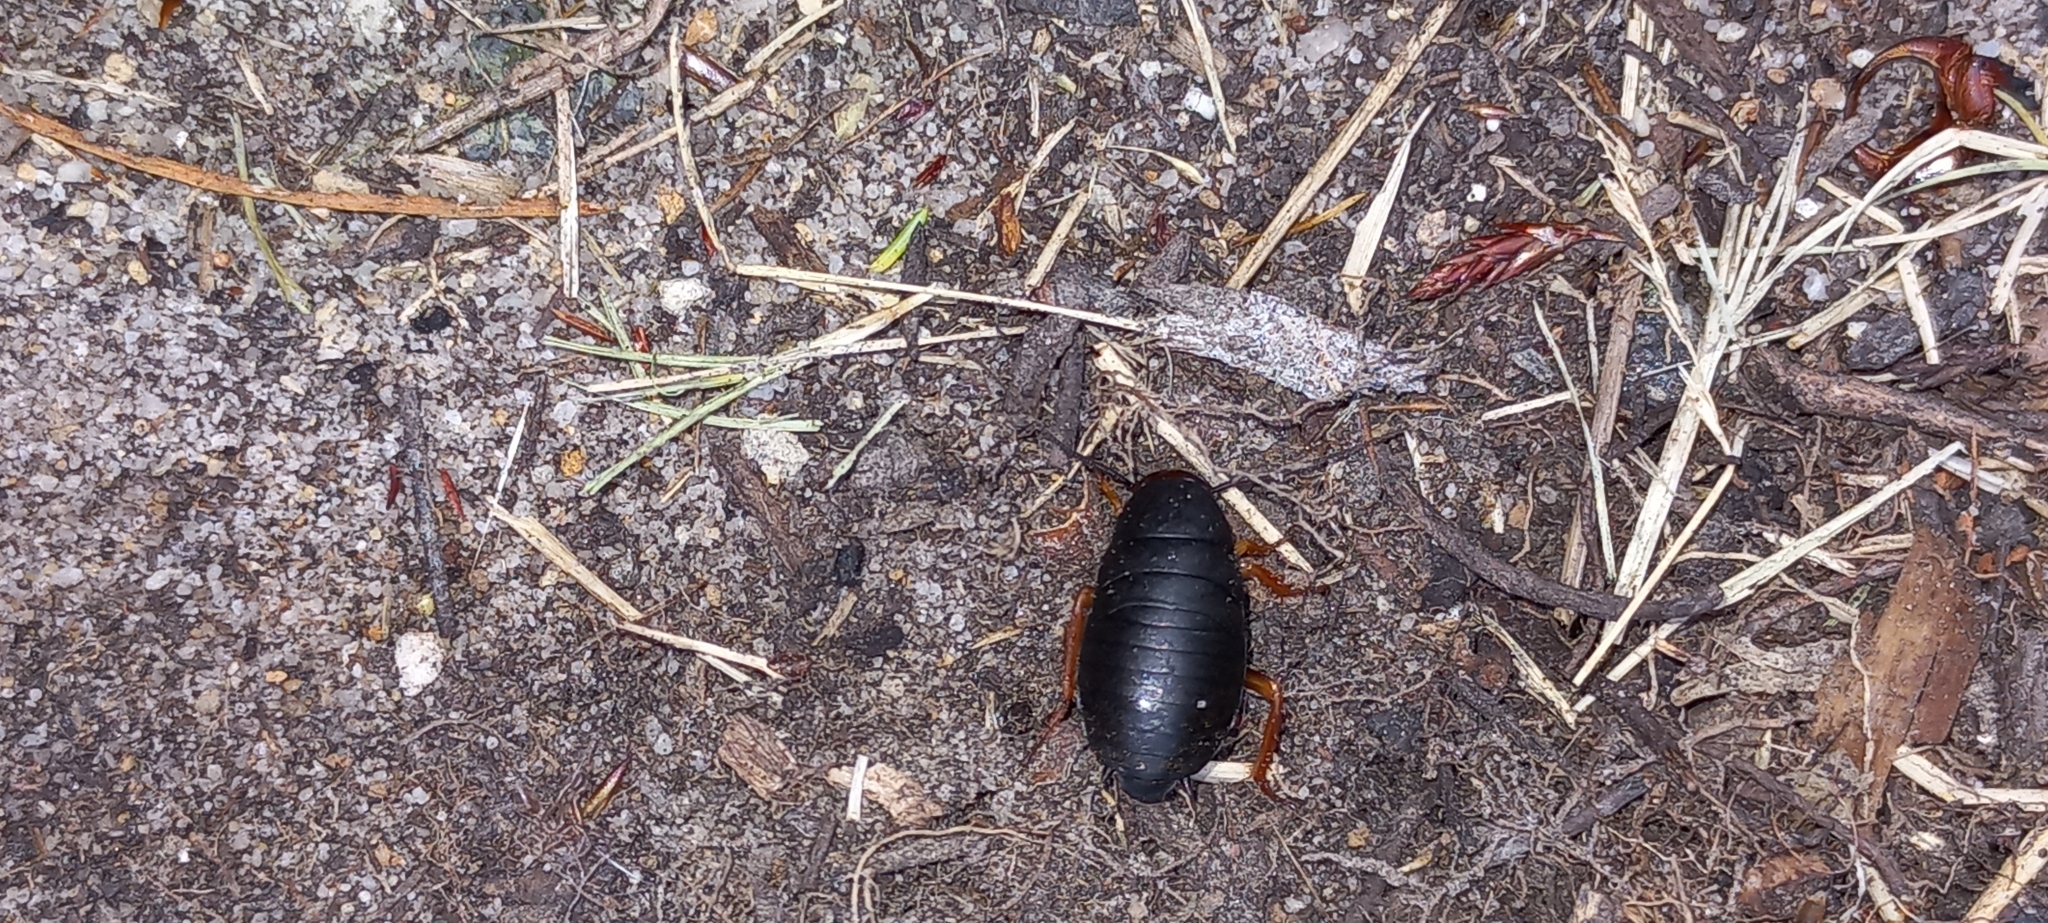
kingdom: Animalia
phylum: Arthropoda
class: Insecta
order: Blattodea
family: Blattidae
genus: Deropeltis
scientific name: Deropeltis erythrocephala
